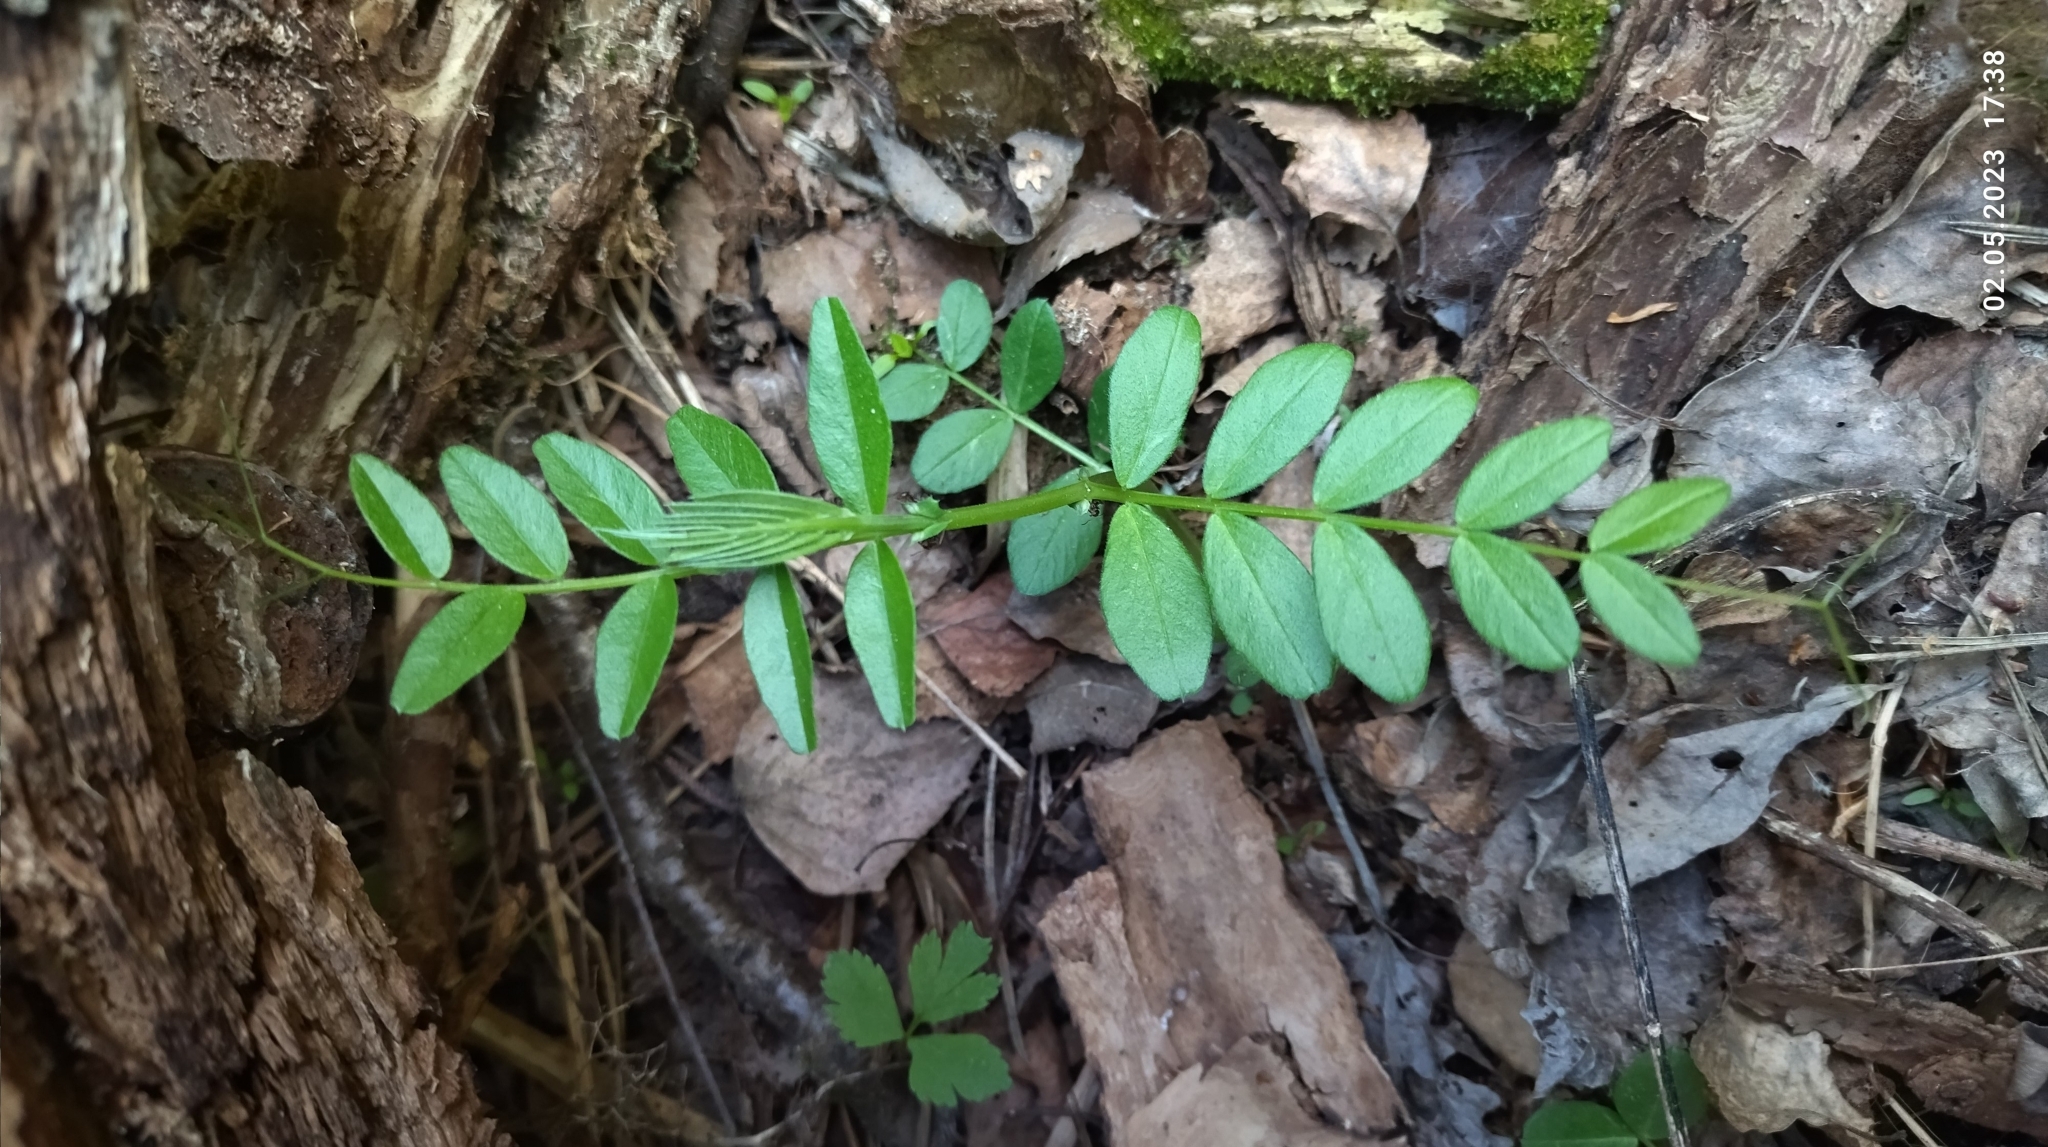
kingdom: Plantae
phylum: Tracheophyta
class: Magnoliopsida
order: Fabales
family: Fabaceae
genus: Vicia
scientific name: Vicia sepium
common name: Bush vetch
